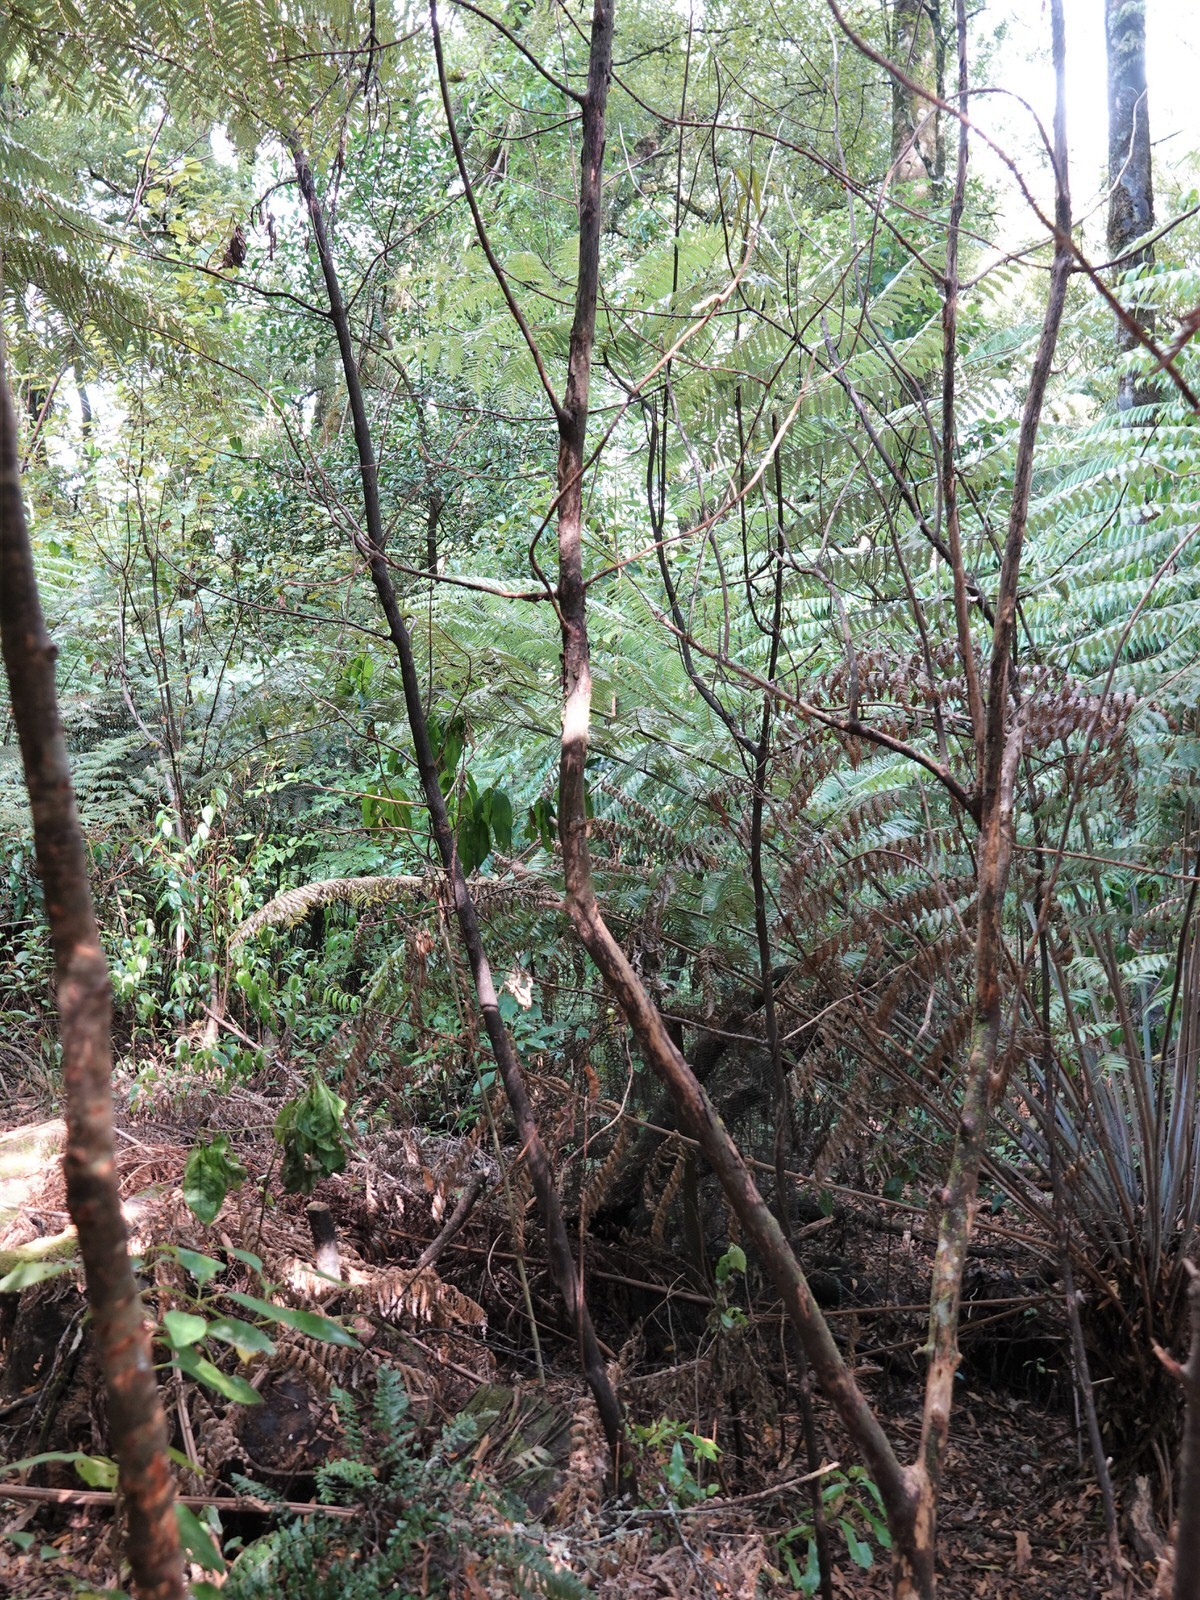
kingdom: Plantae
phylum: Tracheophyta
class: Magnoliopsida
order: Gentianales
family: Rubiaceae
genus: Coprosma
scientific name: Coprosma autumnalis
